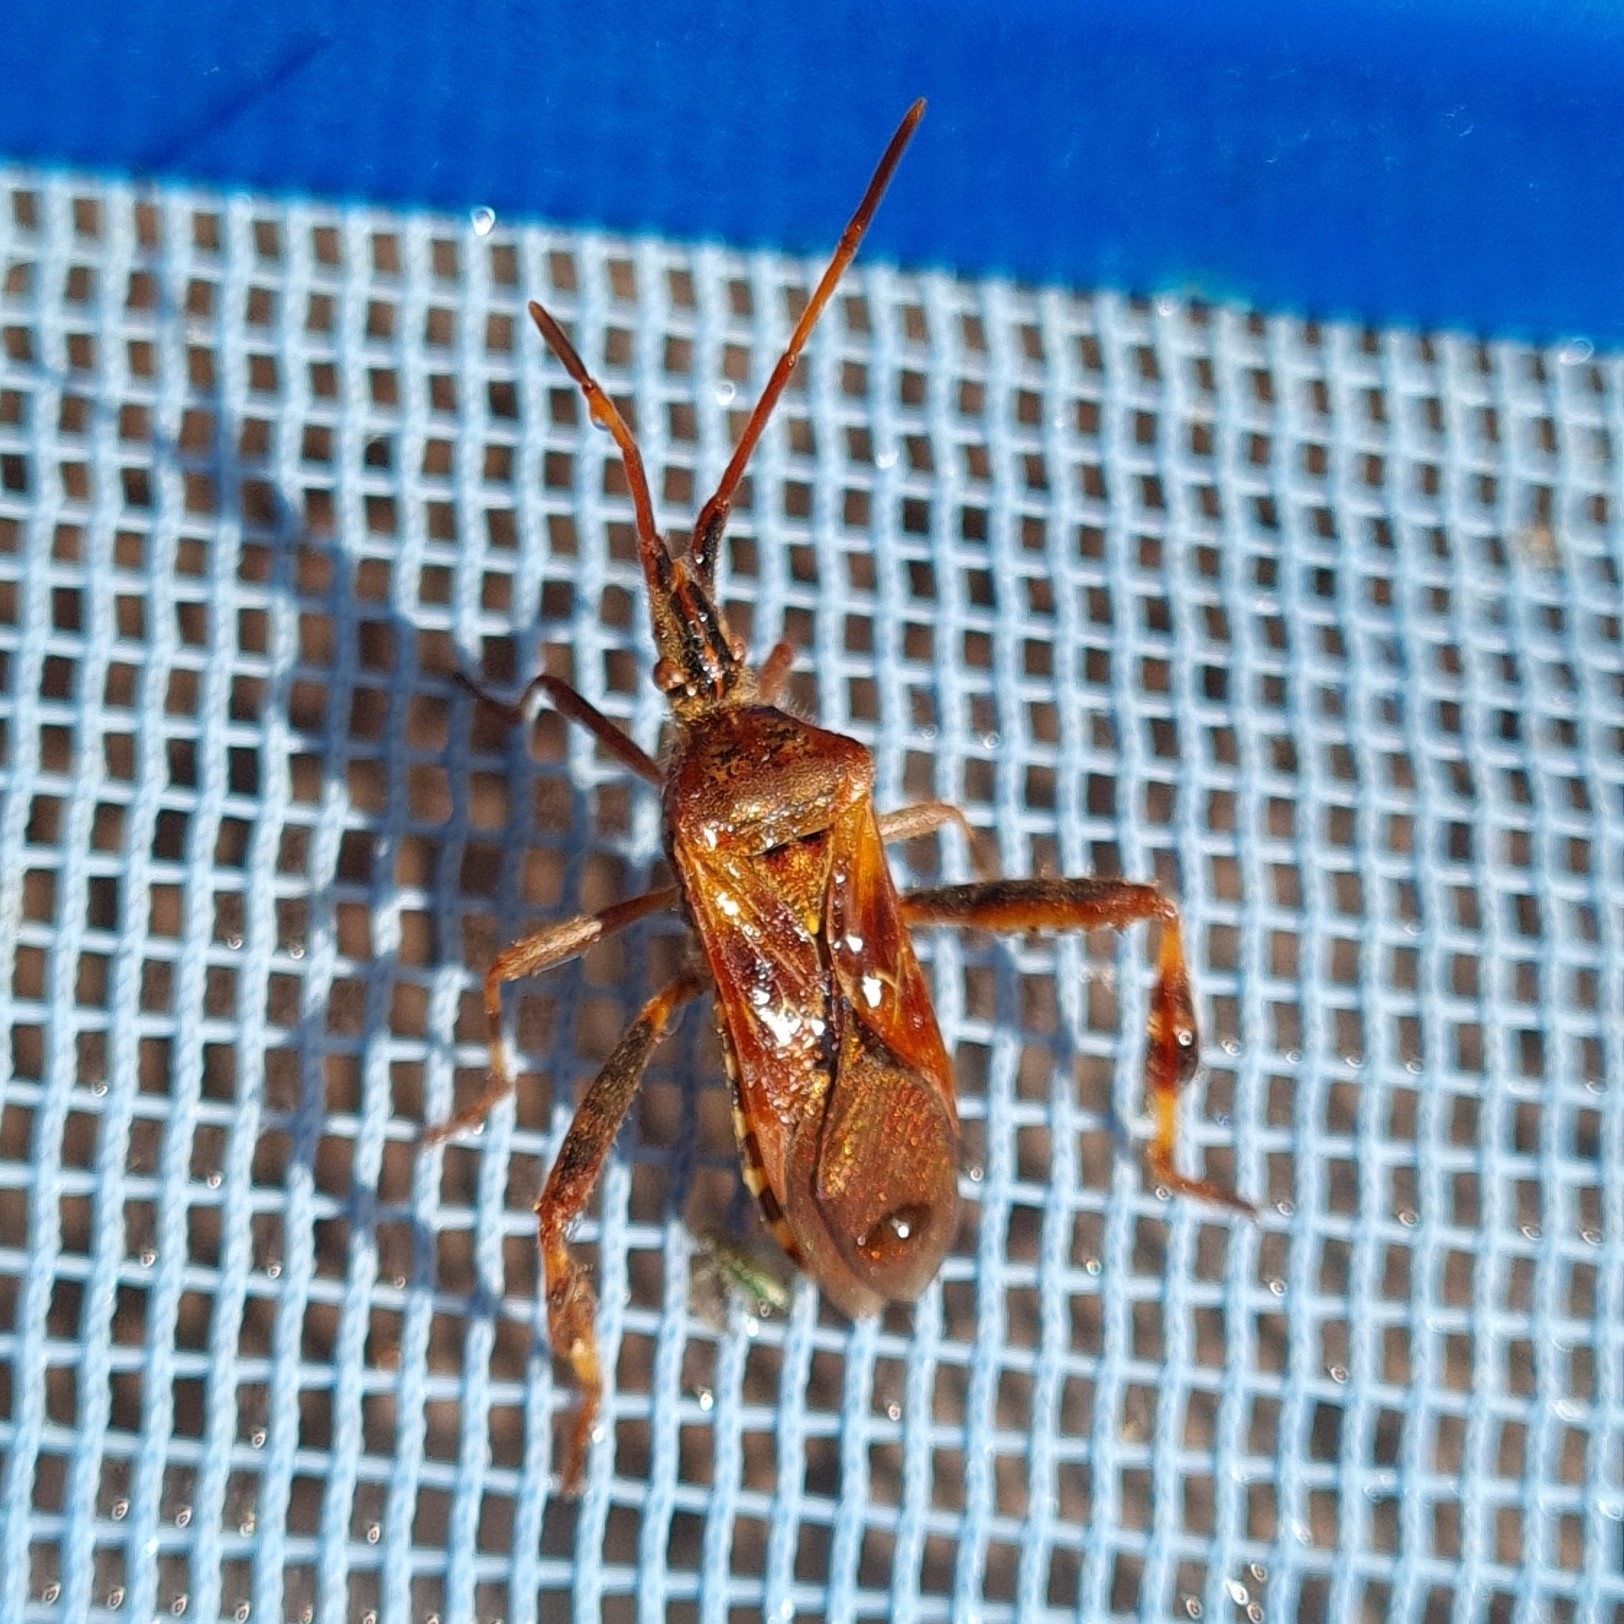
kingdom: Animalia
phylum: Arthropoda
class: Insecta
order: Hemiptera
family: Coreidae
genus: Leptoglossus
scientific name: Leptoglossus occidentalis
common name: Western conifer-seed bug
